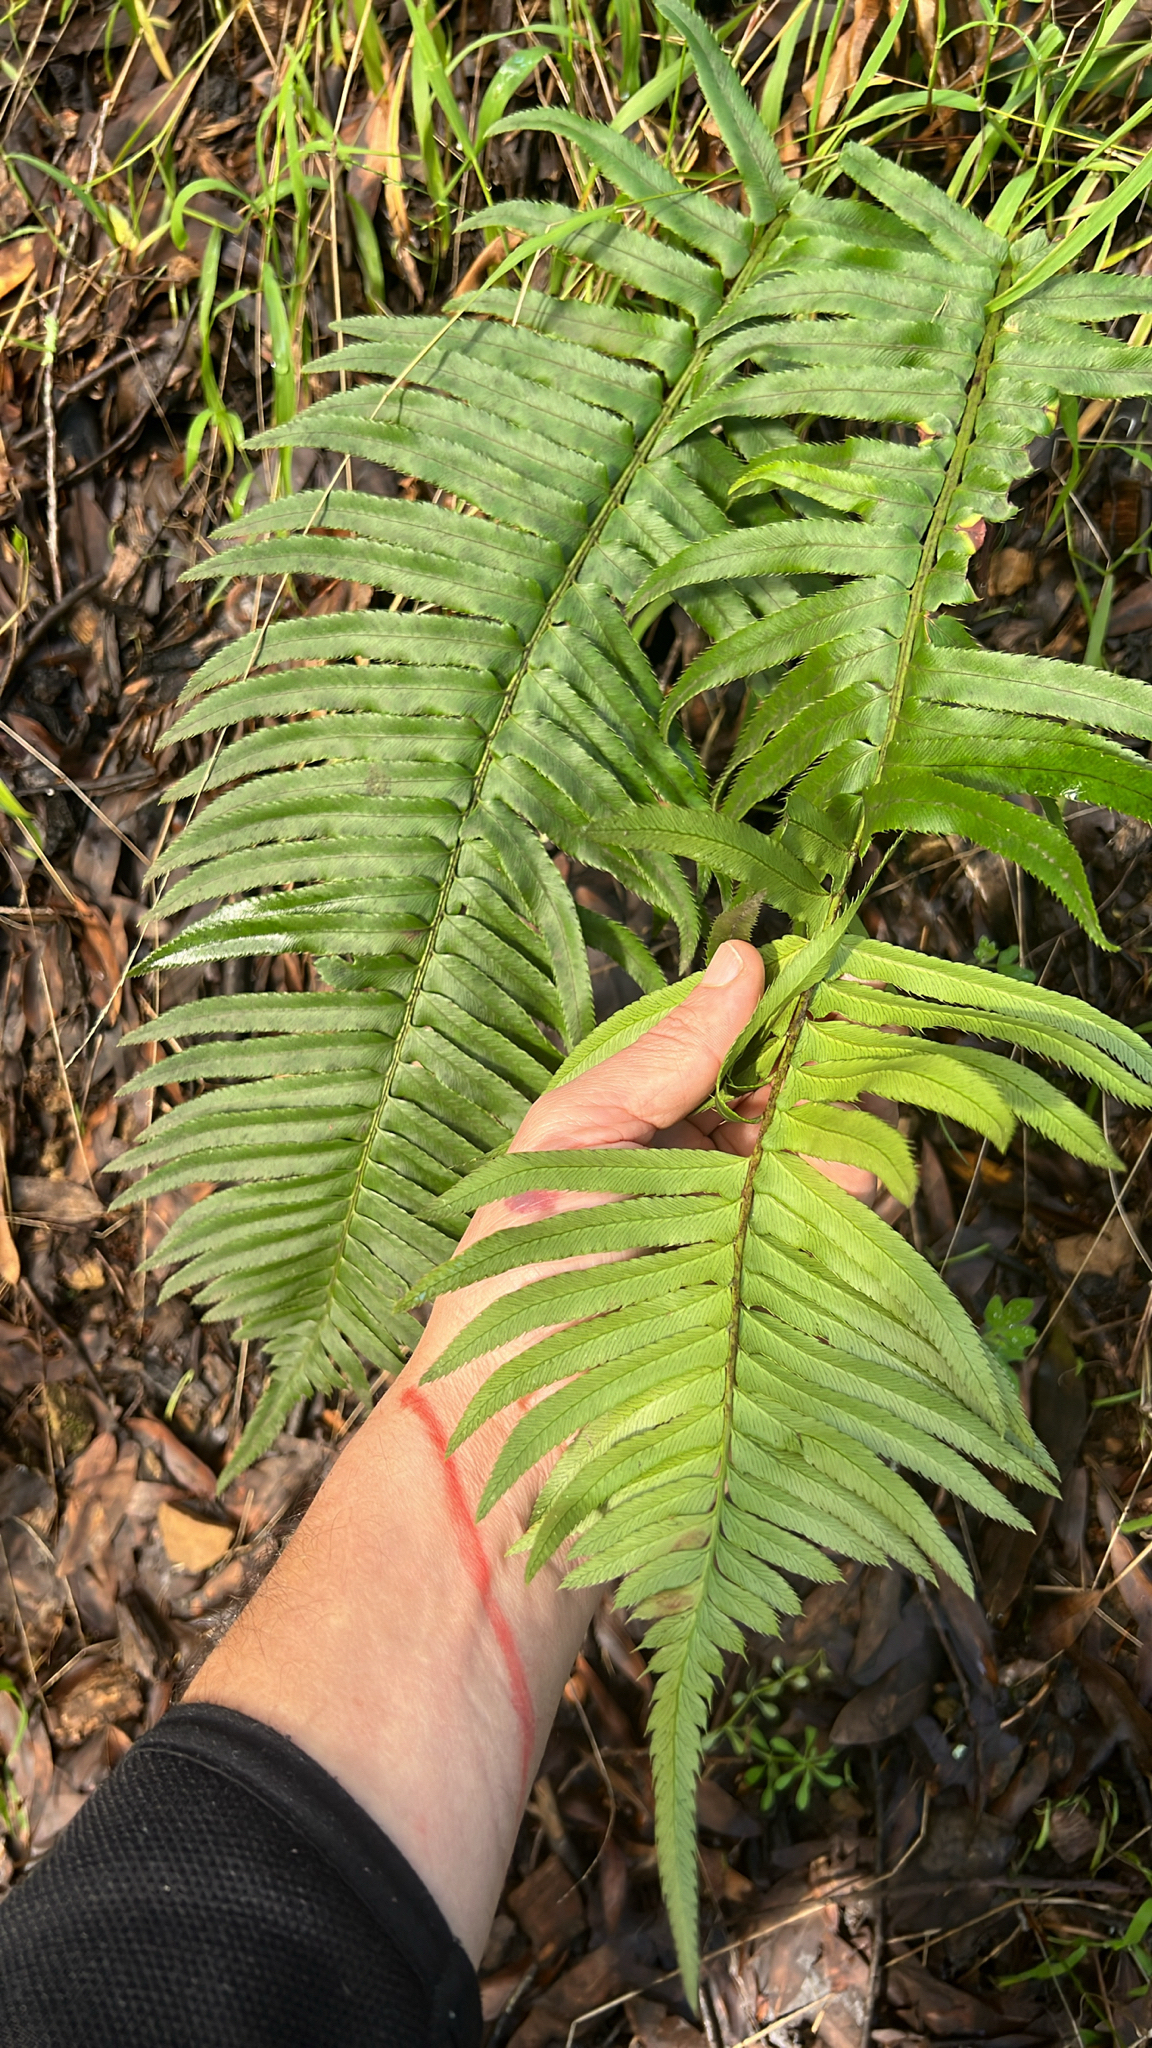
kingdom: Plantae
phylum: Tracheophyta
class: Polypodiopsida
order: Polypodiales
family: Dryopteridaceae
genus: Polystichum
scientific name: Polystichum munitum
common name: Western sword-fern
